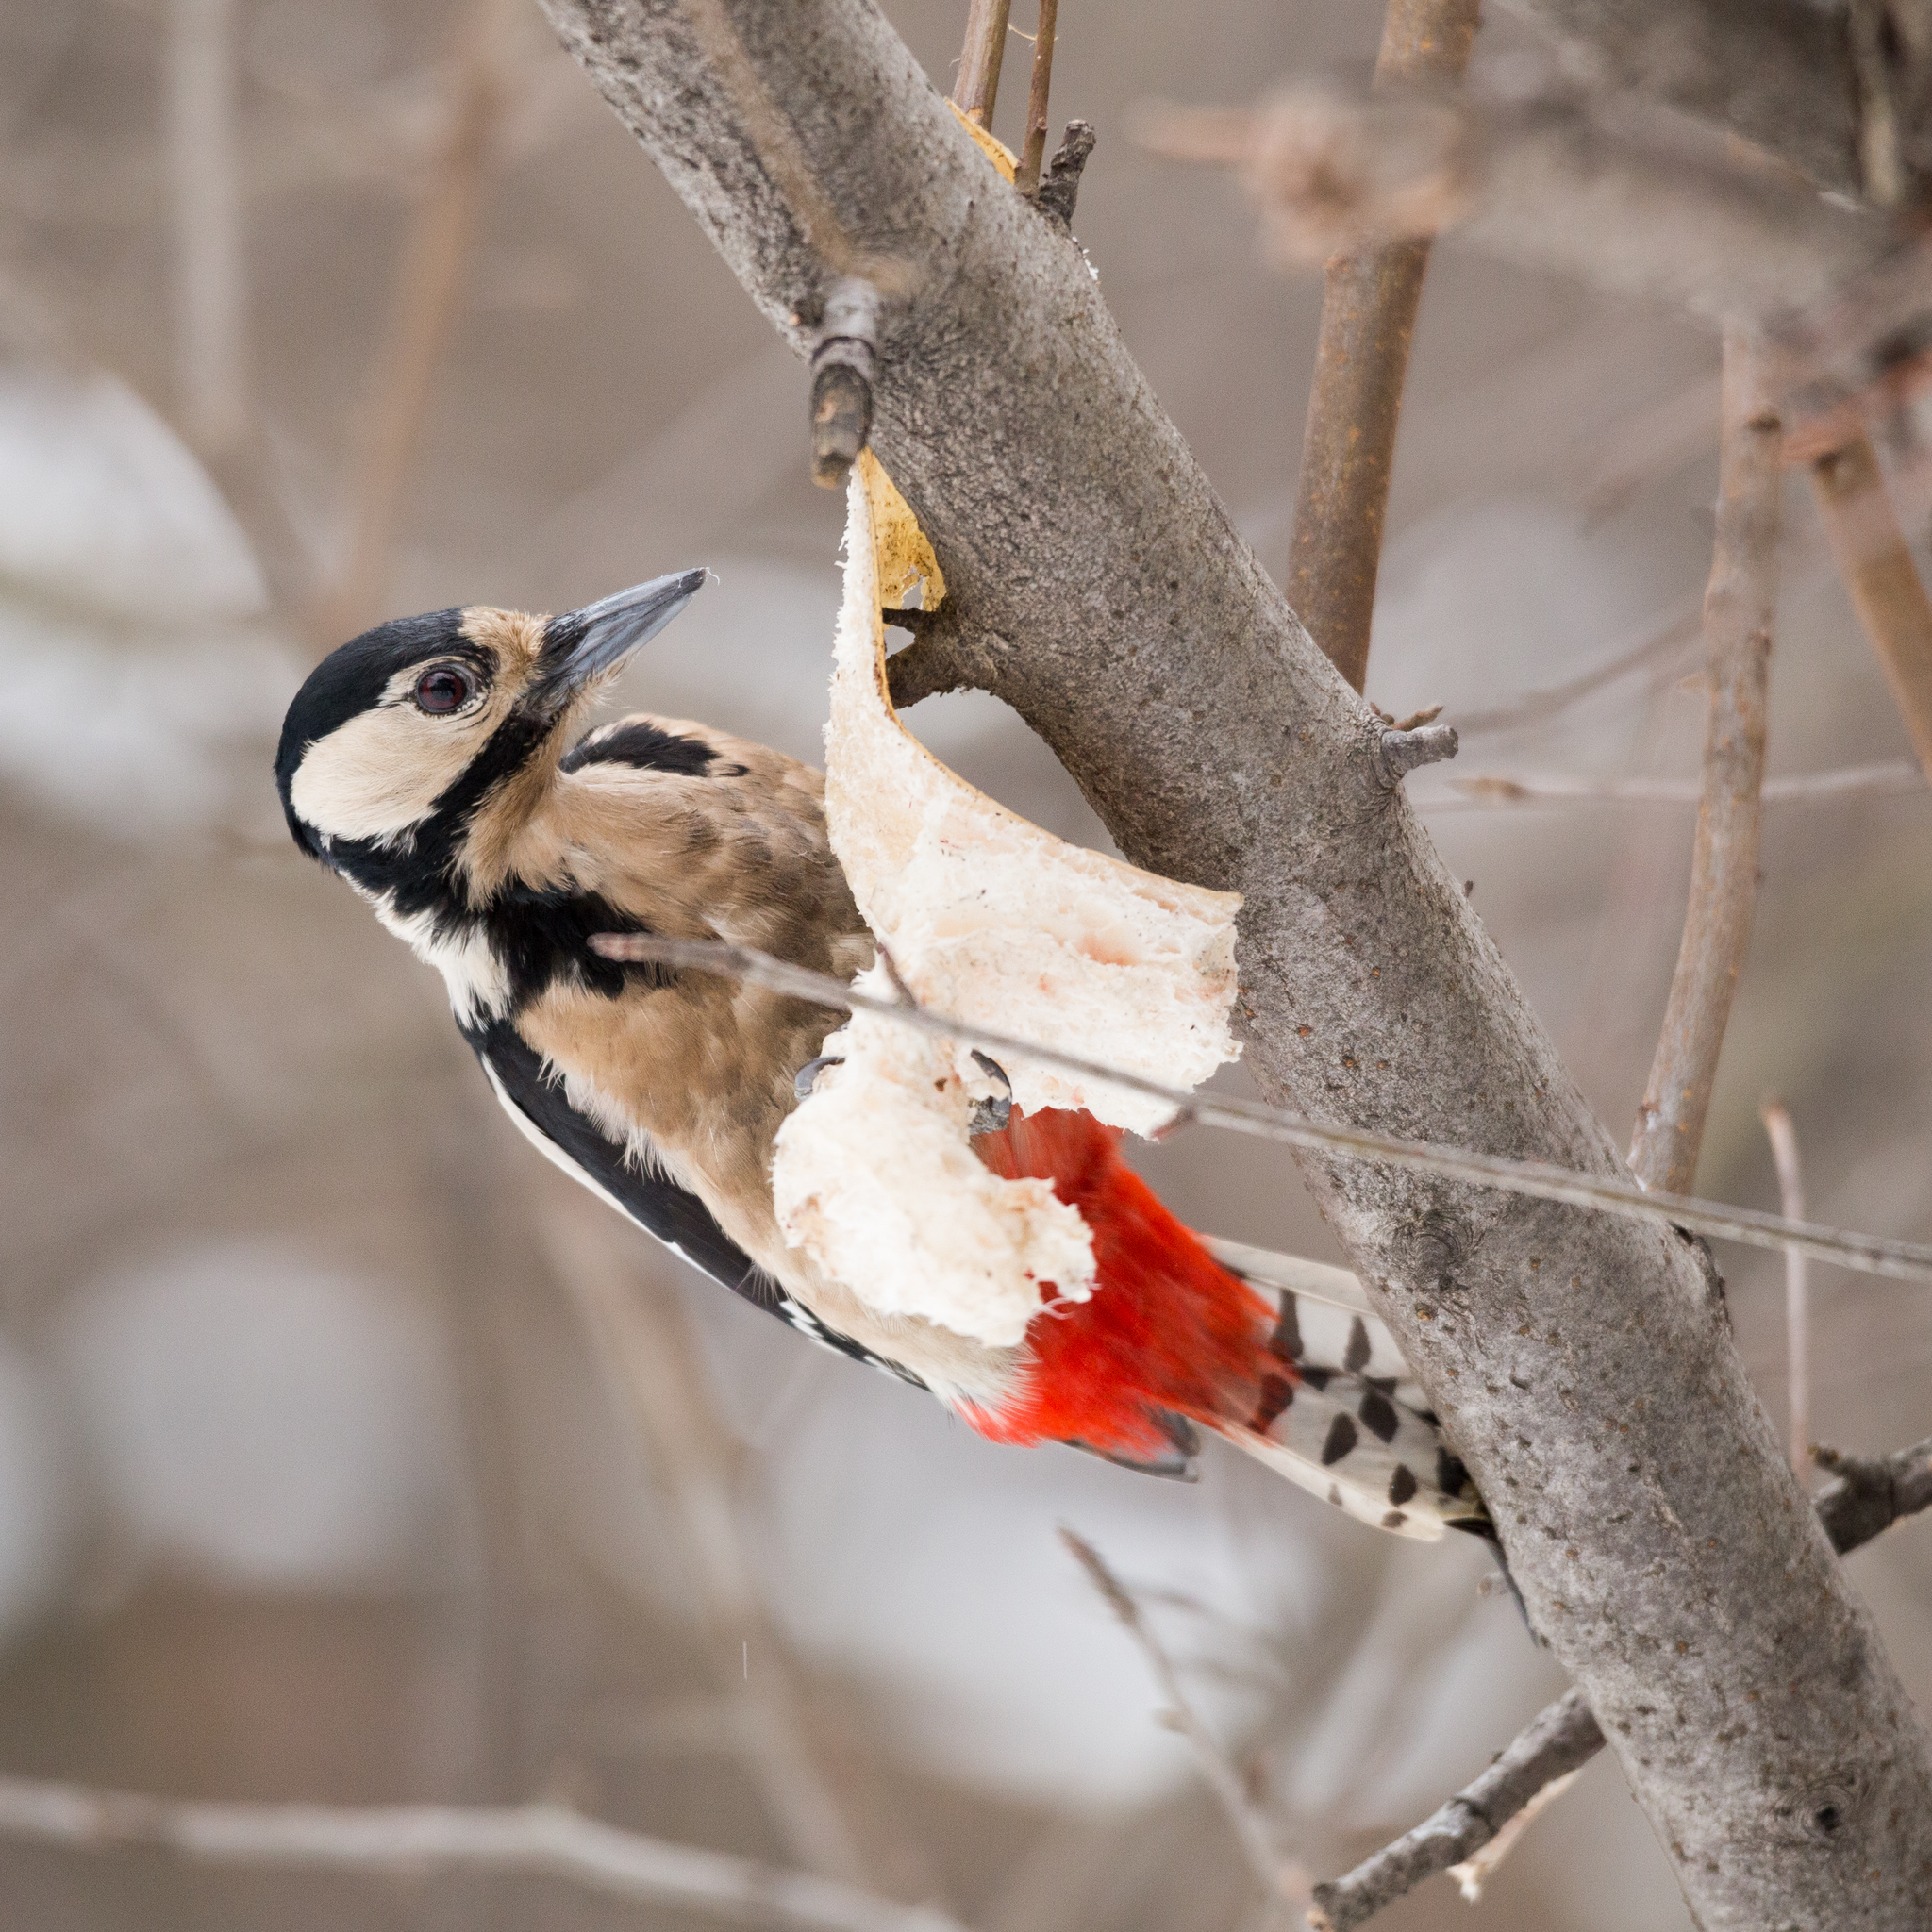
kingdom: Animalia
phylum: Chordata
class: Aves
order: Piciformes
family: Picidae
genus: Dendrocopos
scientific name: Dendrocopos major
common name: Great spotted woodpecker
